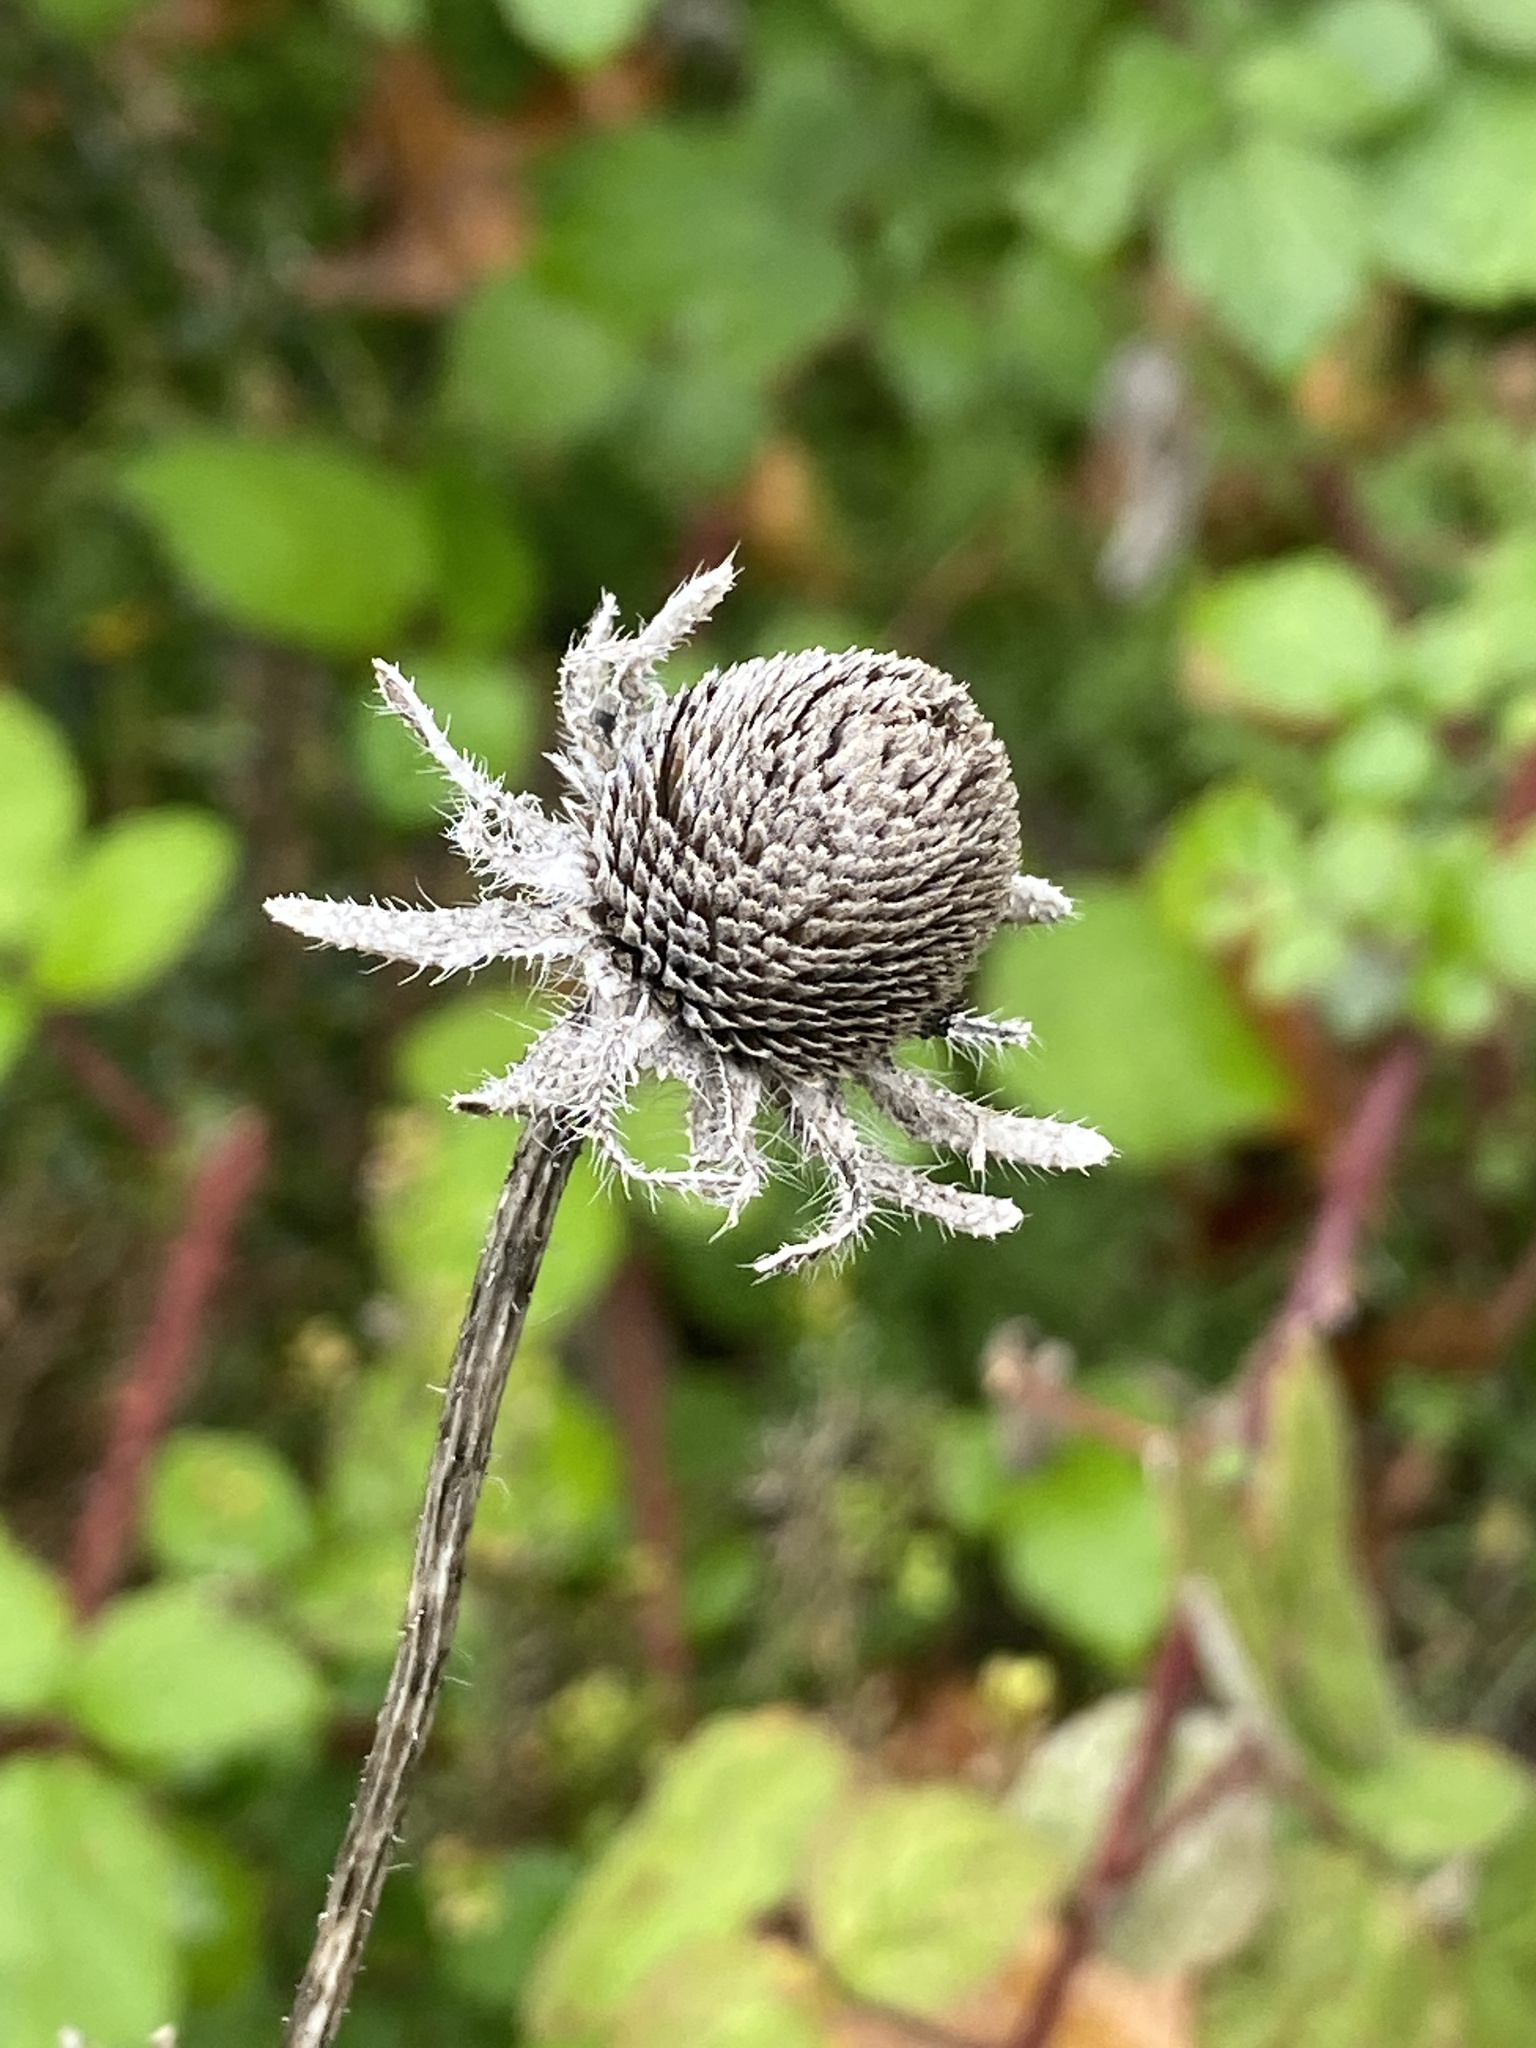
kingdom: Plantae
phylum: Tracheophyta
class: Magnoliopsida
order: Asterales
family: Asteraceae
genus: Rudbeckia
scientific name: Rudbeckia hirta
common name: Black-eyed-susan
